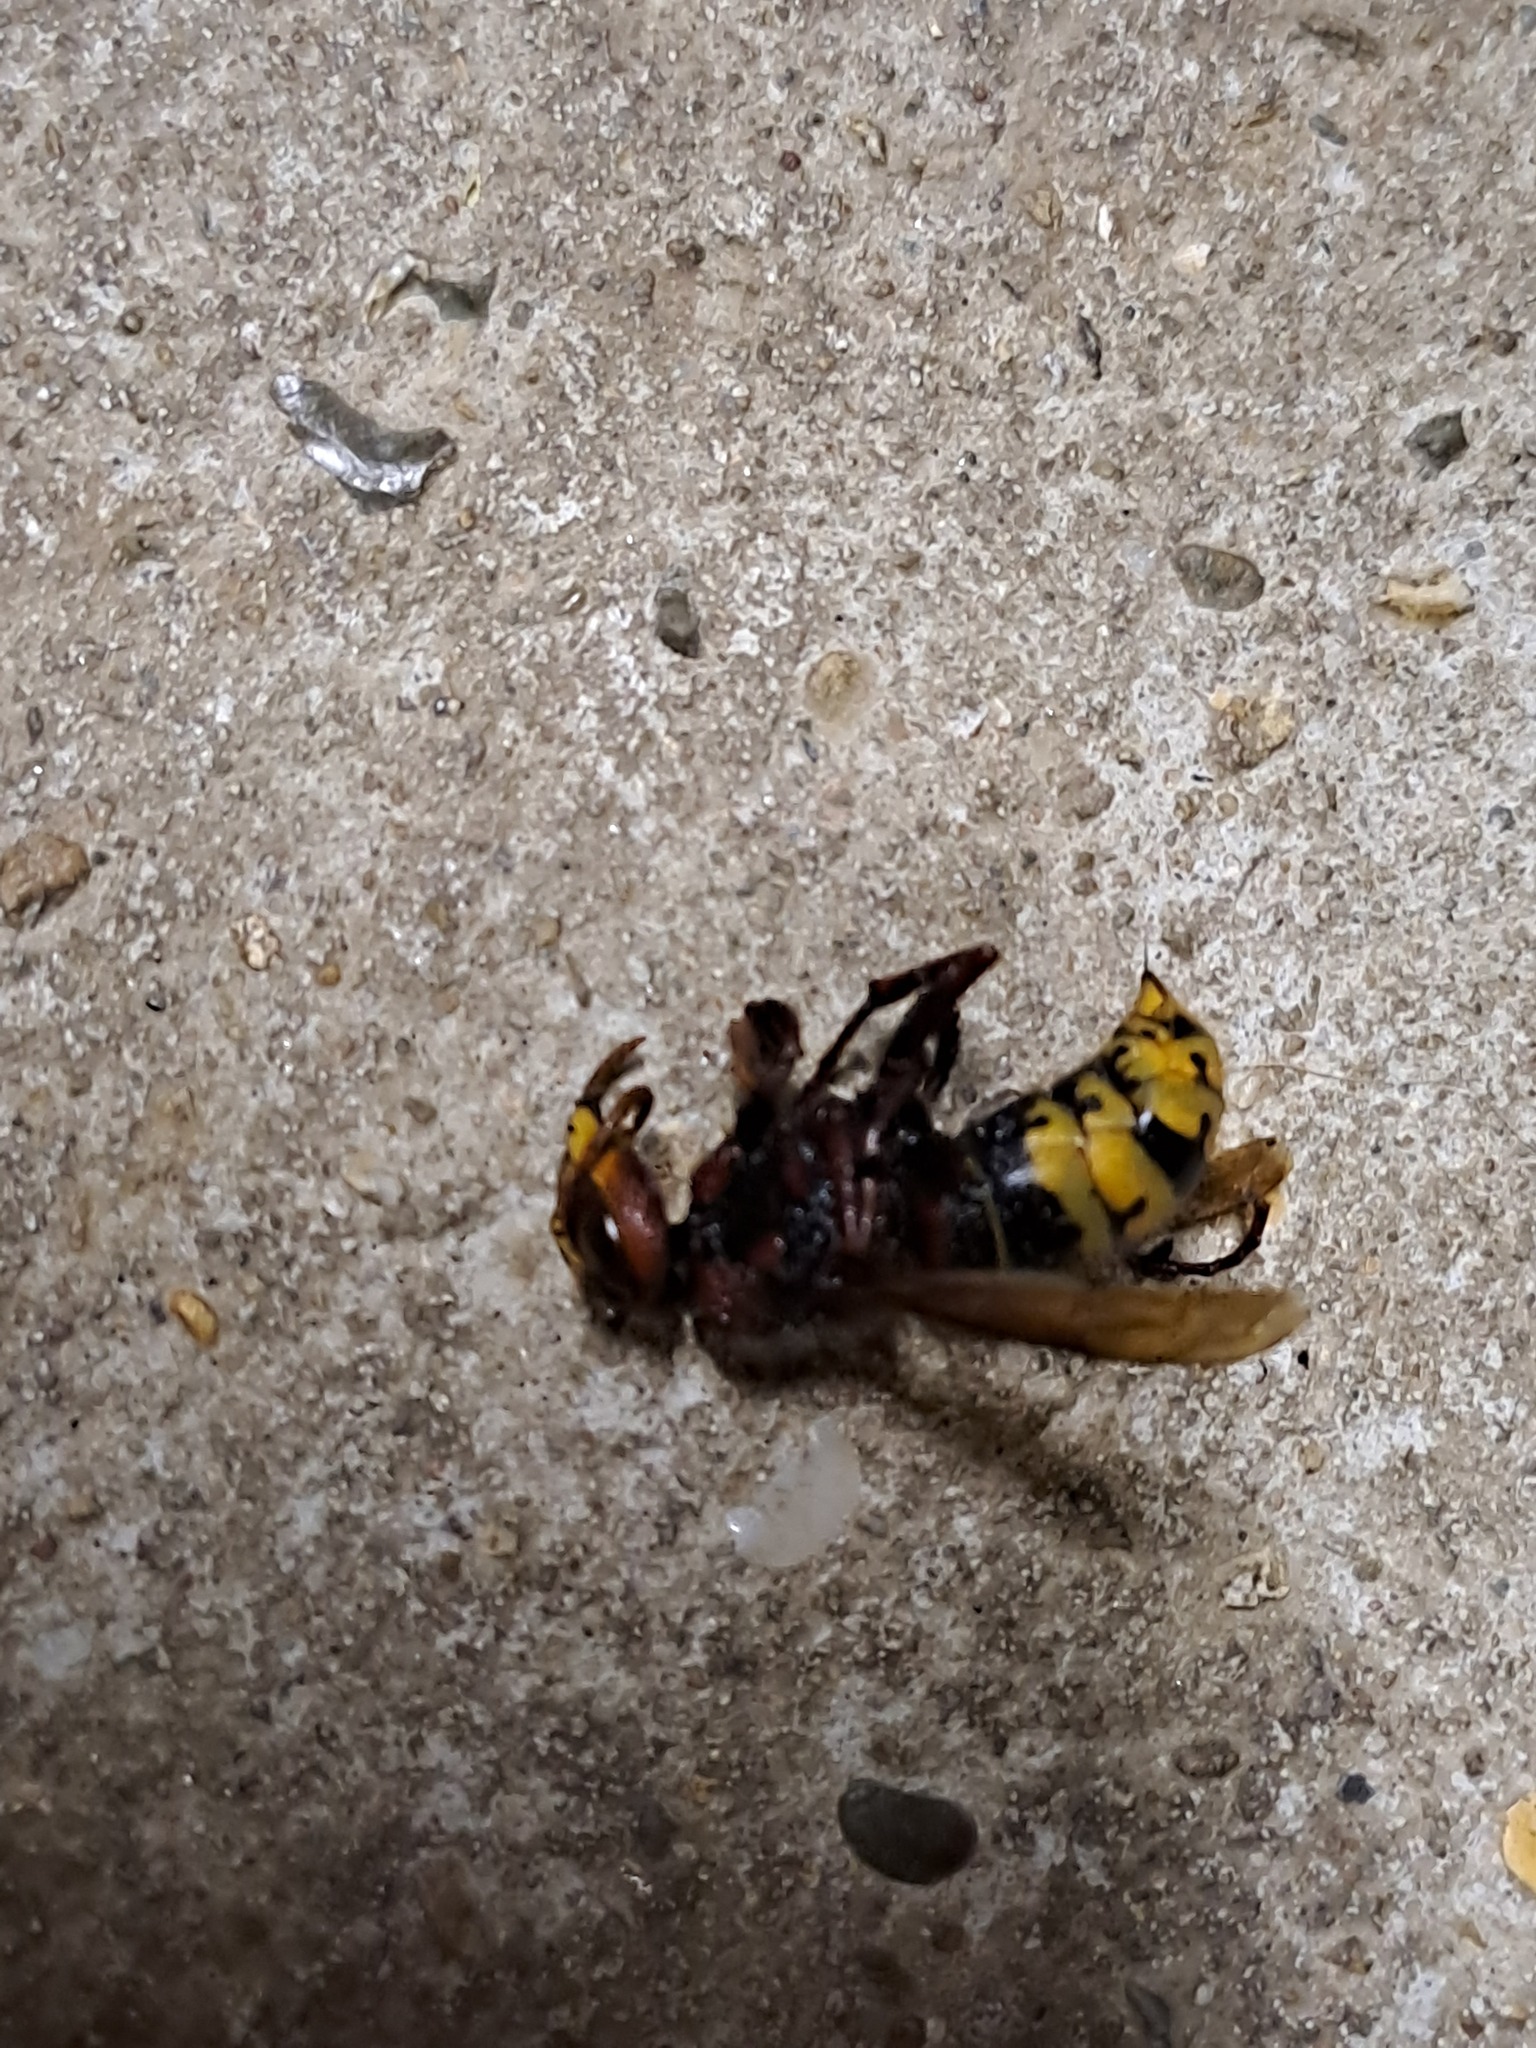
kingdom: Animalia
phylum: Arthropoda
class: Insecta
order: Hymenoptera
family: Vespidae
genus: Vespa
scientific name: Vespa crabro
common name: Hornet
